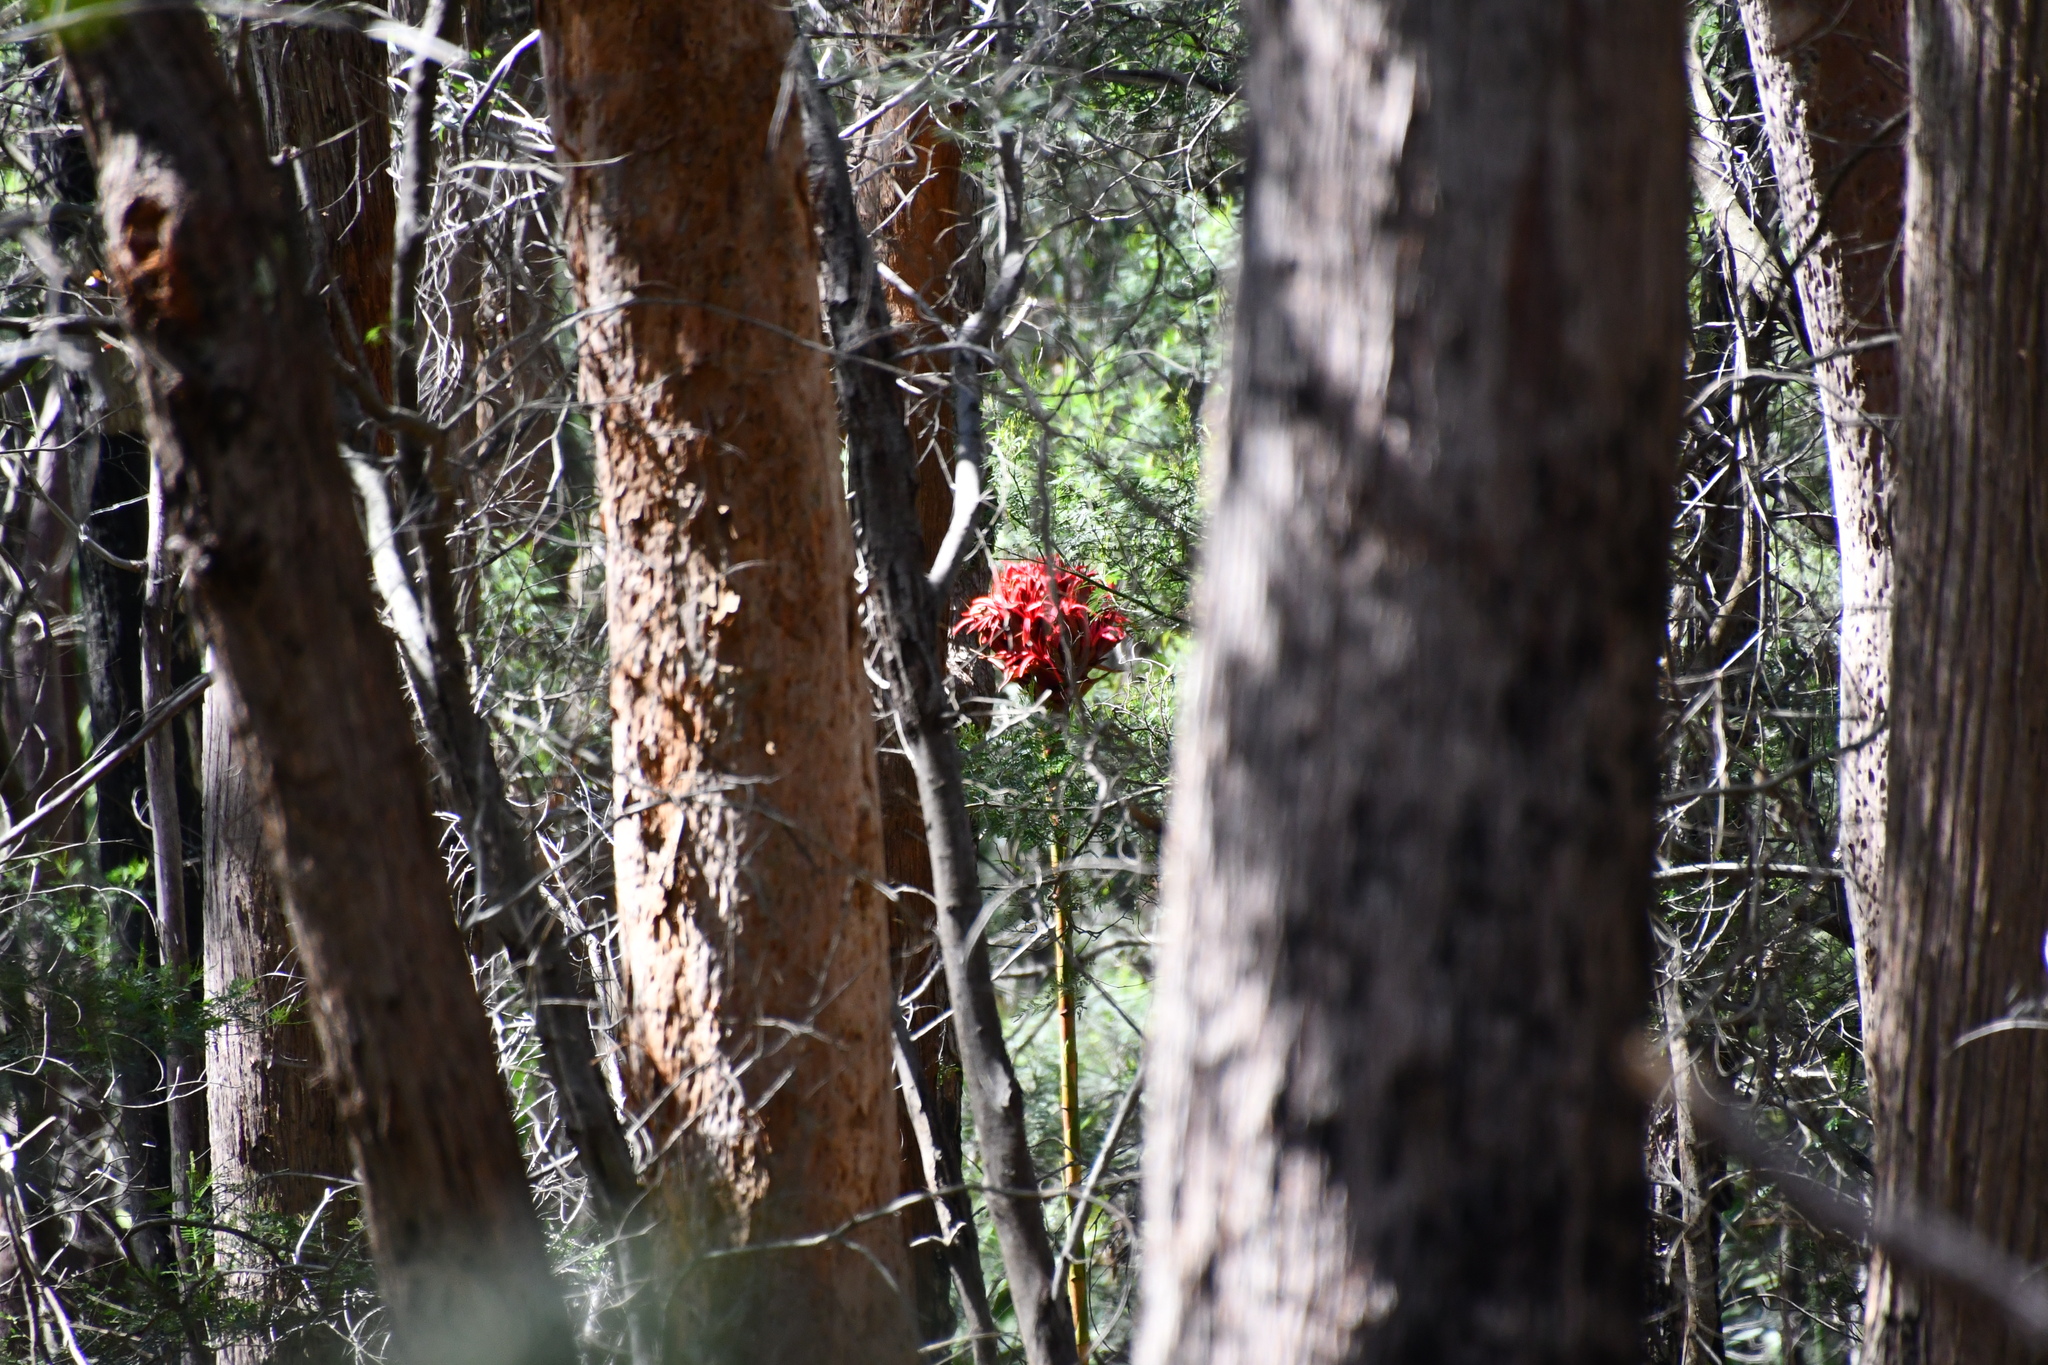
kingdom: Plantae
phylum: Tracheophyta
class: Liliopsida
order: Asparagales
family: Doryanthaceae
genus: Doryanthes
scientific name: Doryanthes excelsa
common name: Giant-lily
